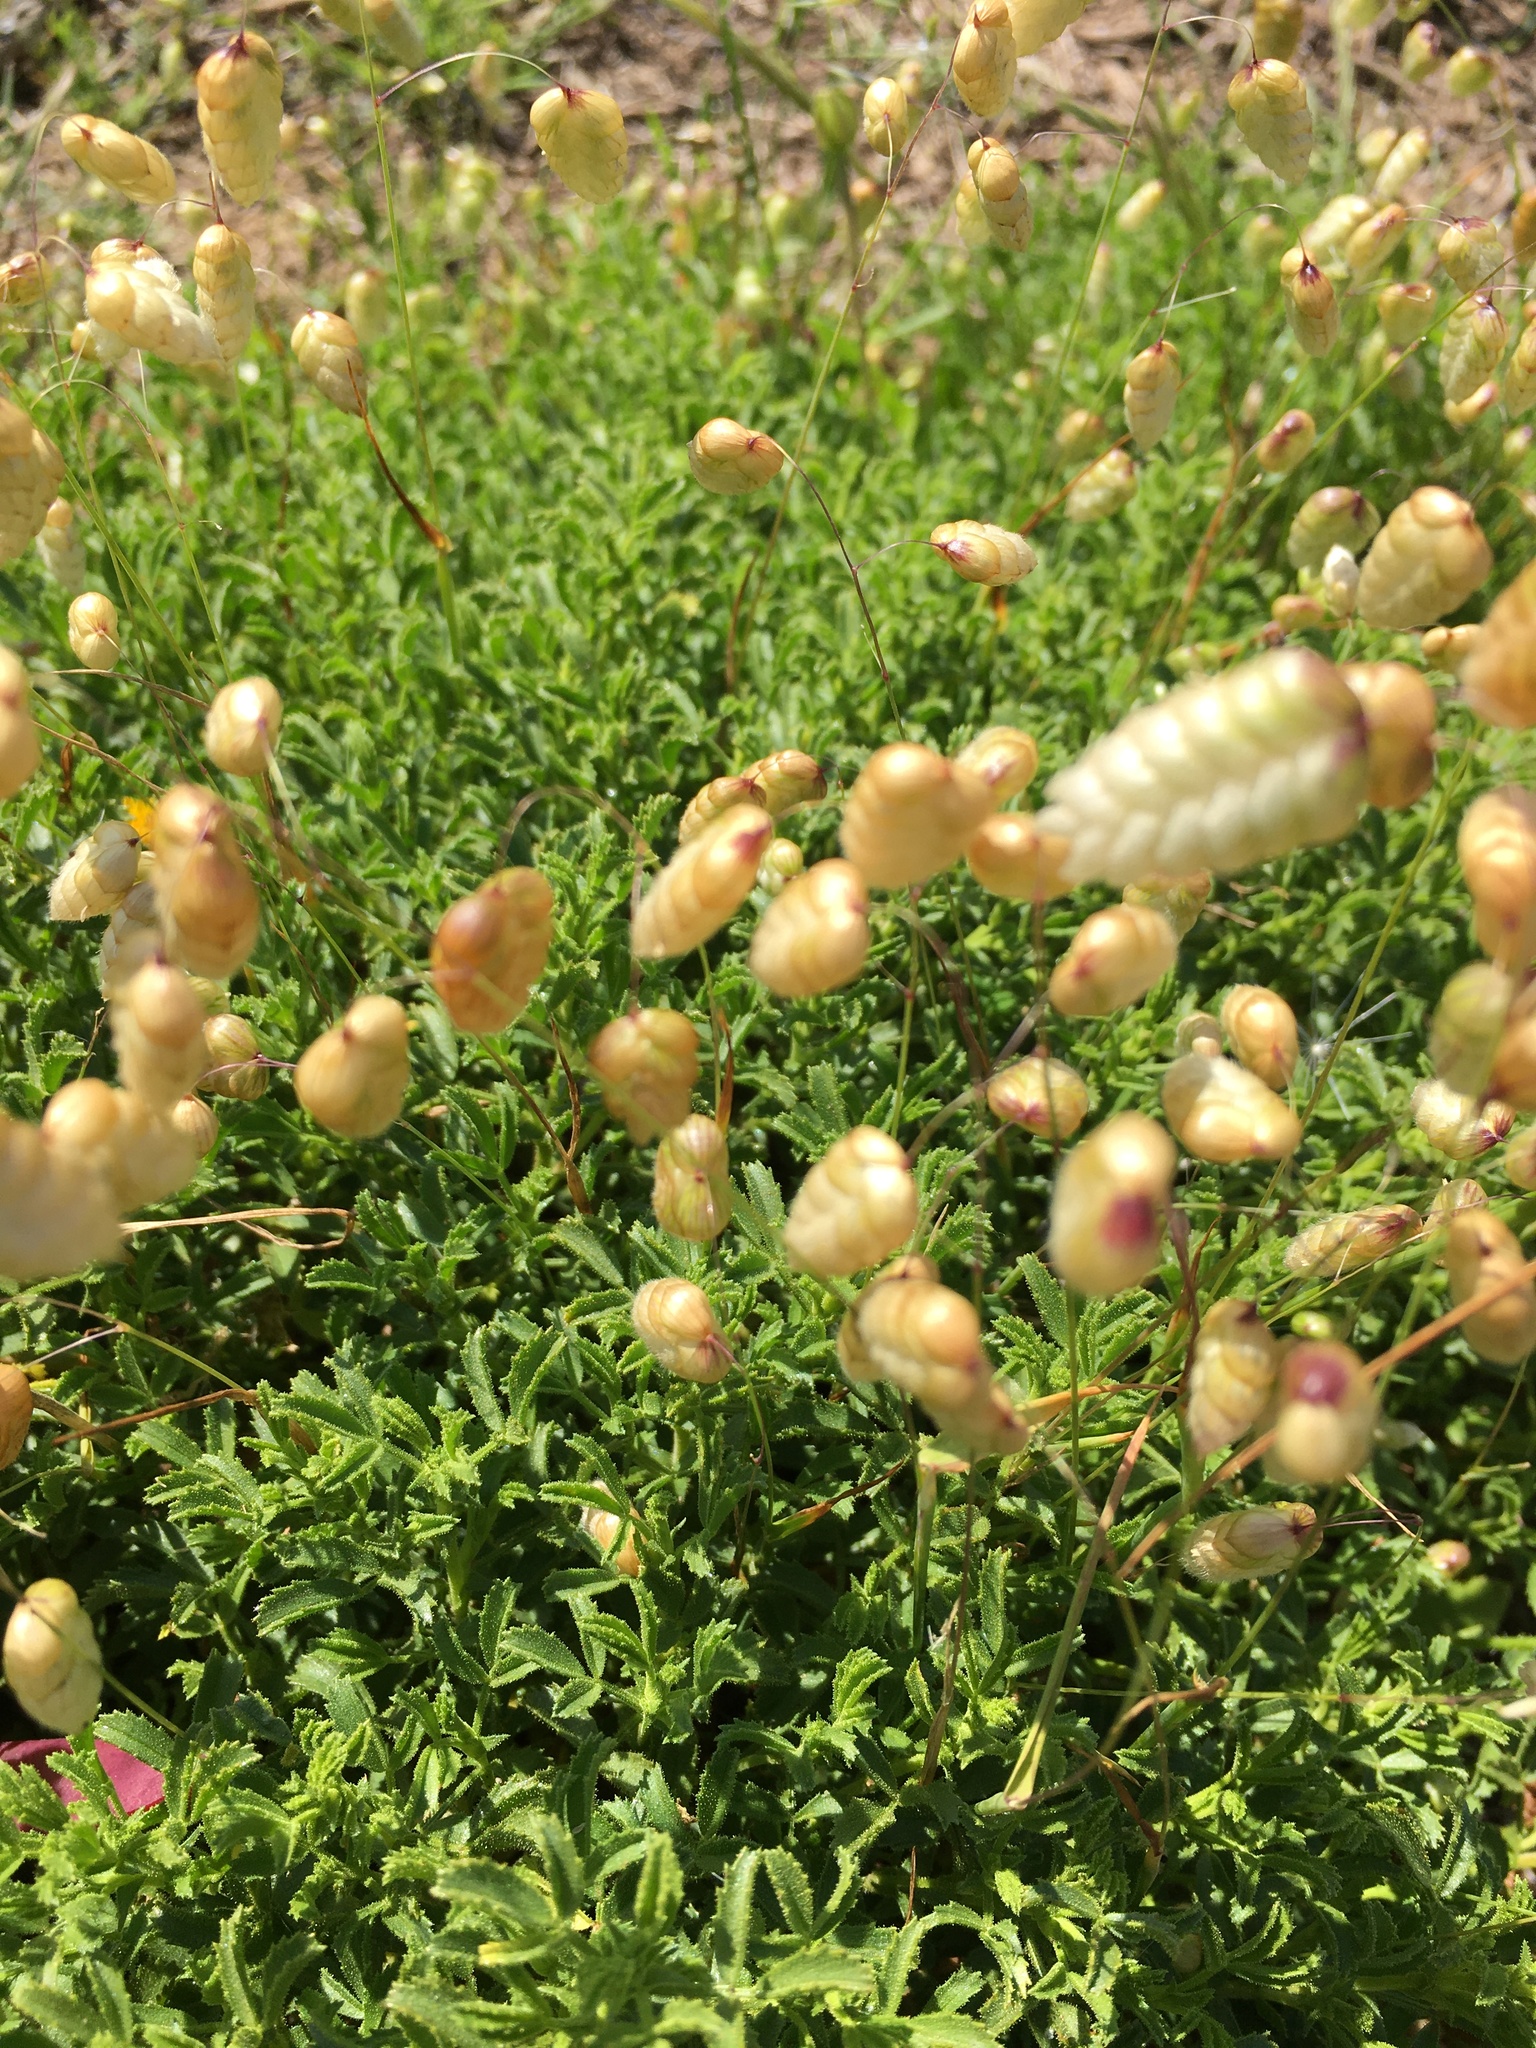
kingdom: Plantae
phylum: Tracheophyta
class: Liliopsida
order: Poales
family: Poaceae
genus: Briza
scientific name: Briza maxima
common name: Big quakinggrass
